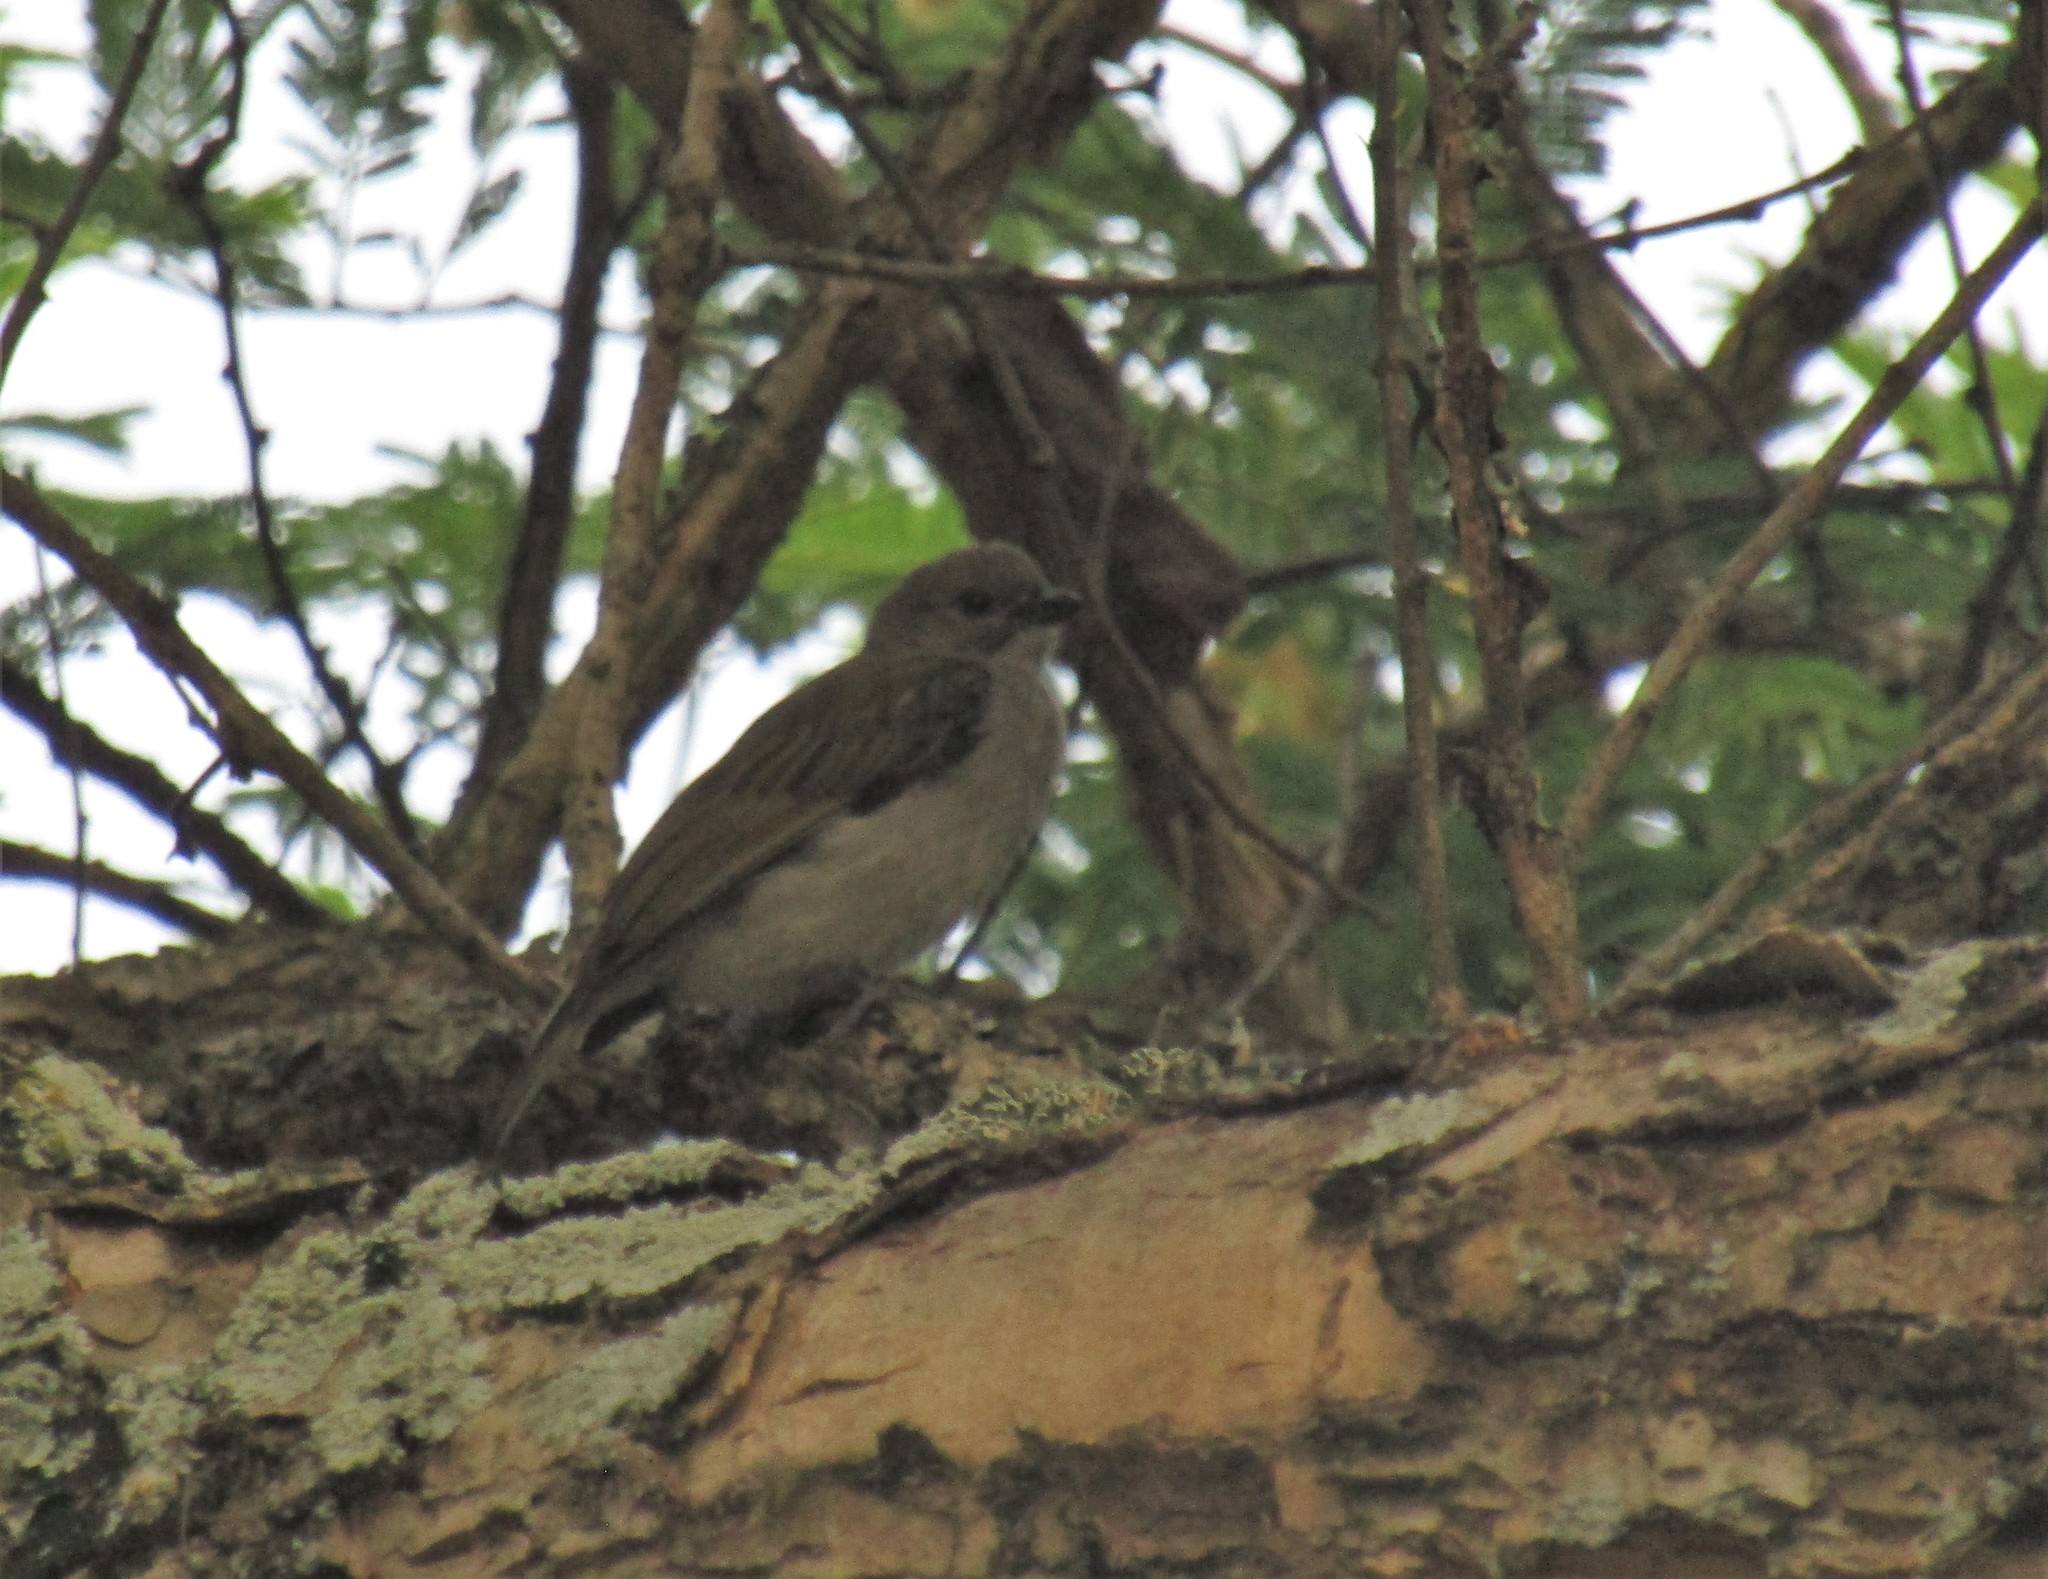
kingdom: Animalia
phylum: Chordata
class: Aves
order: Piciformes
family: Indicatoridae
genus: Indicator
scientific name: Indicator minor
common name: Lesser honeyguide
